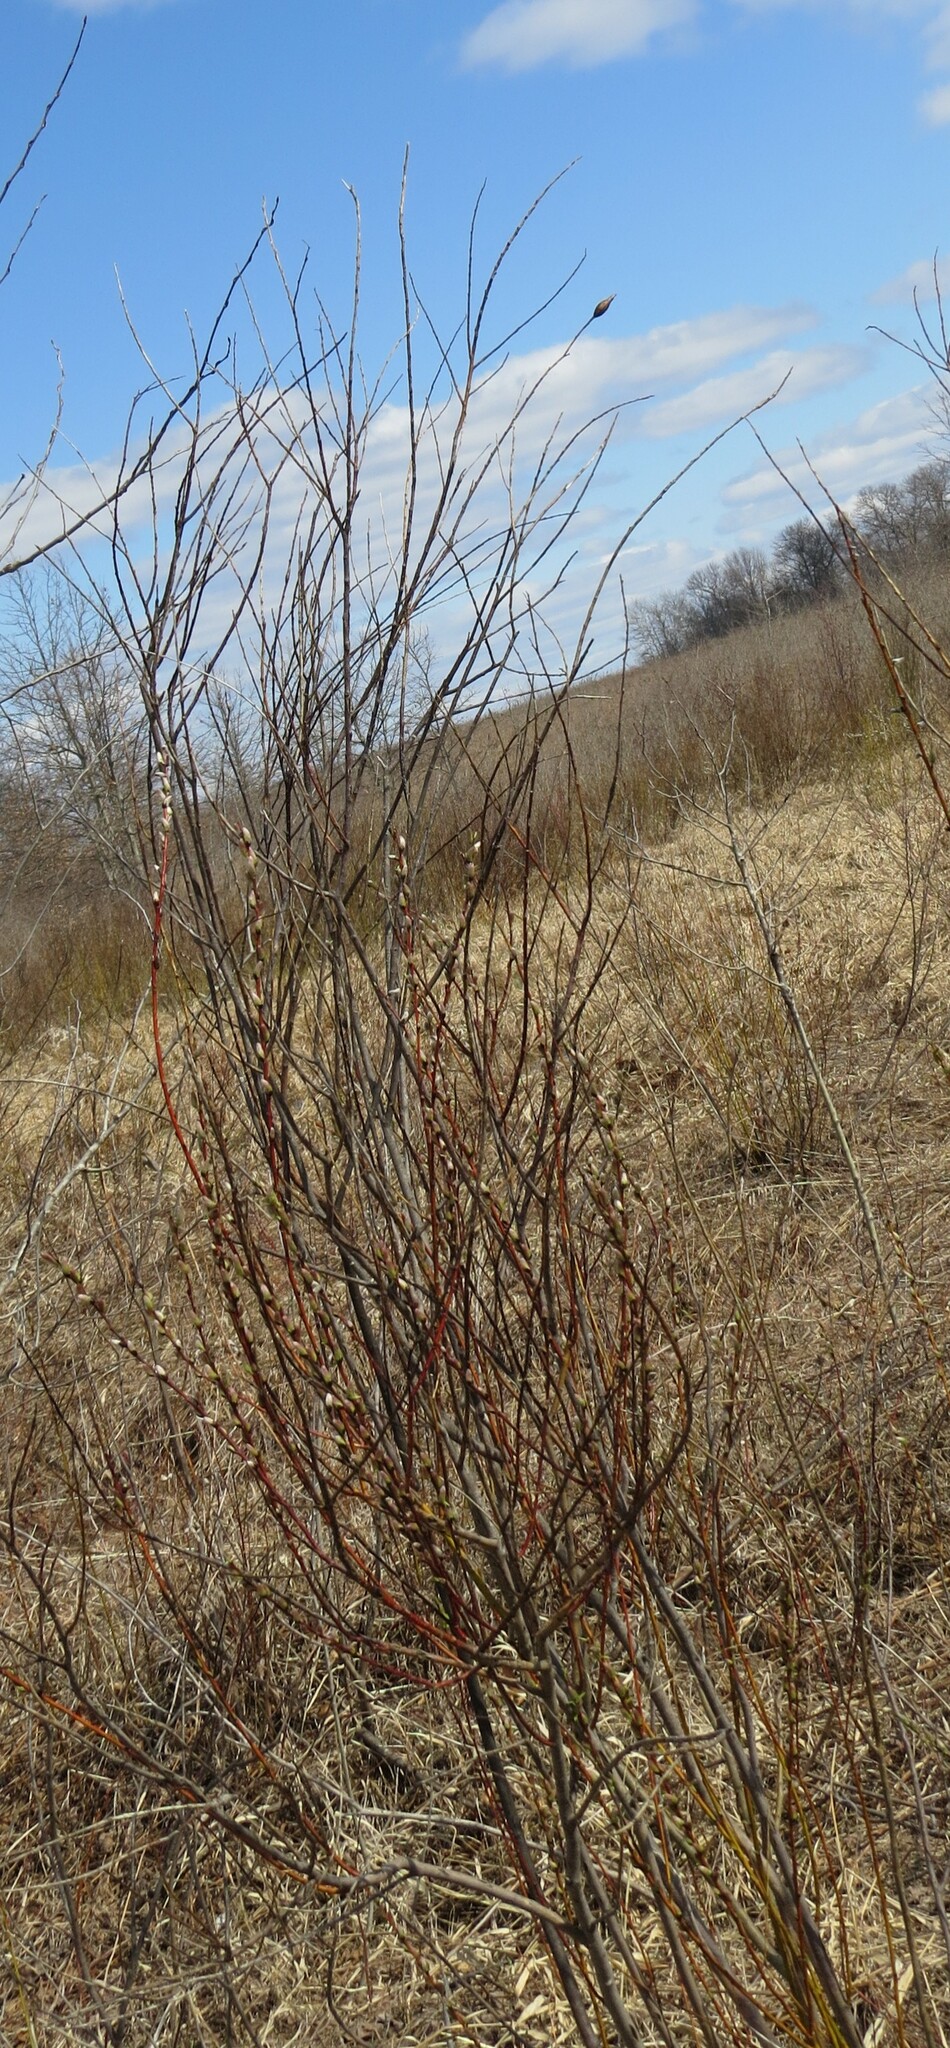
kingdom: Animalia
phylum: Arthropoda
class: Insecta
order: Diptera
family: Cecidomyiidae
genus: Thecodiplosis
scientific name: Thecodiplosis pinirigidae
